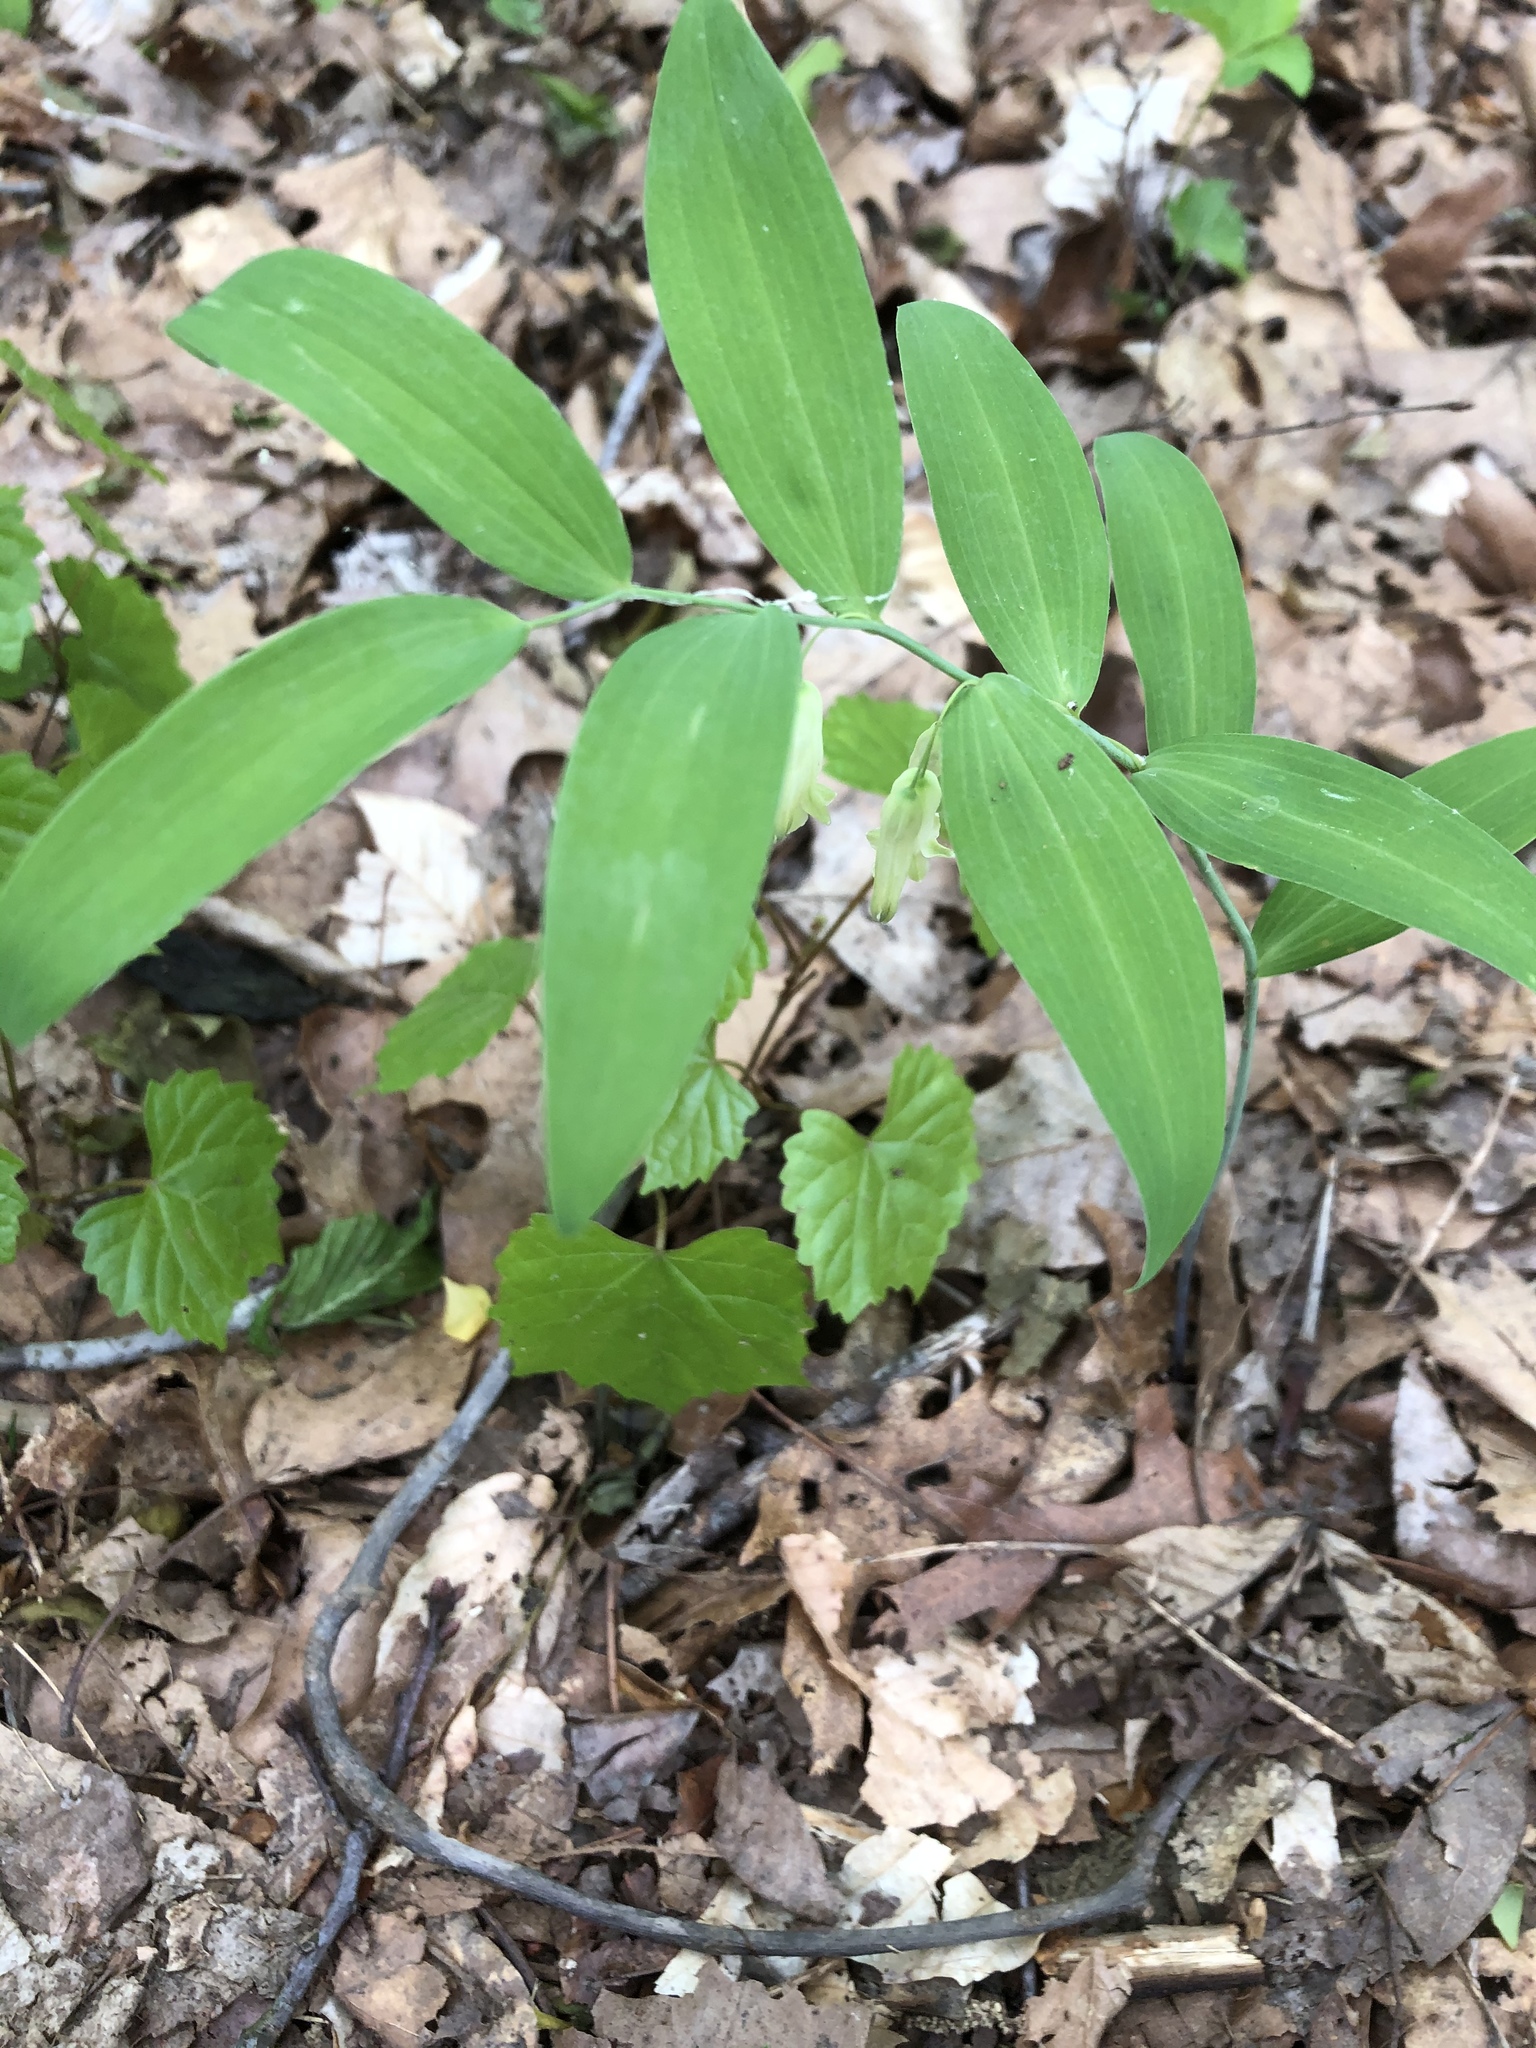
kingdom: Plantae
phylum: Tracheophyta
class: Liliopsida
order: Asparagales
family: Asparagaceae
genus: Polygonatum
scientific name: Polygonatum biflorum
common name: American solomon's-seal
